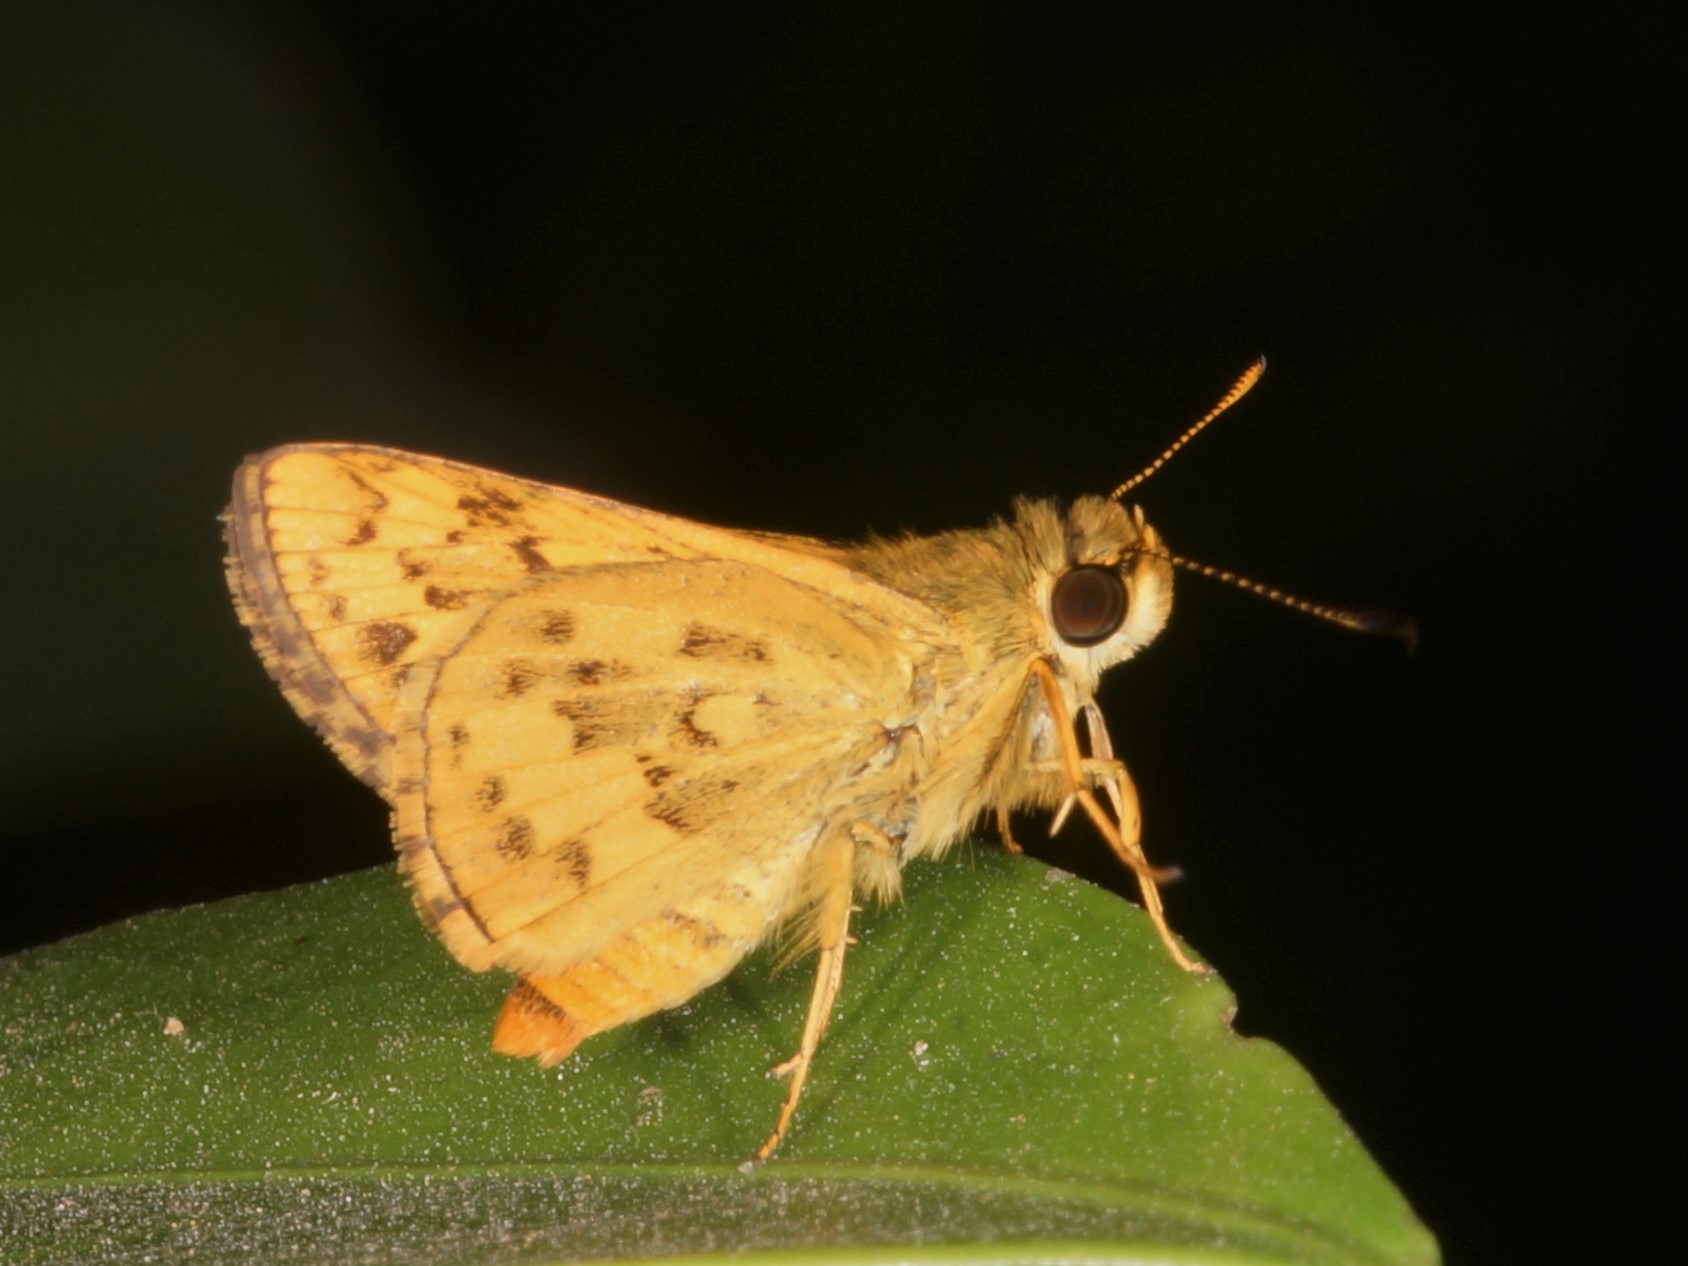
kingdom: Animalia
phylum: Arthropoda
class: Insecta
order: Lepidoptera
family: Hesperiidae
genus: Potanthus
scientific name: Potanthus confucius
